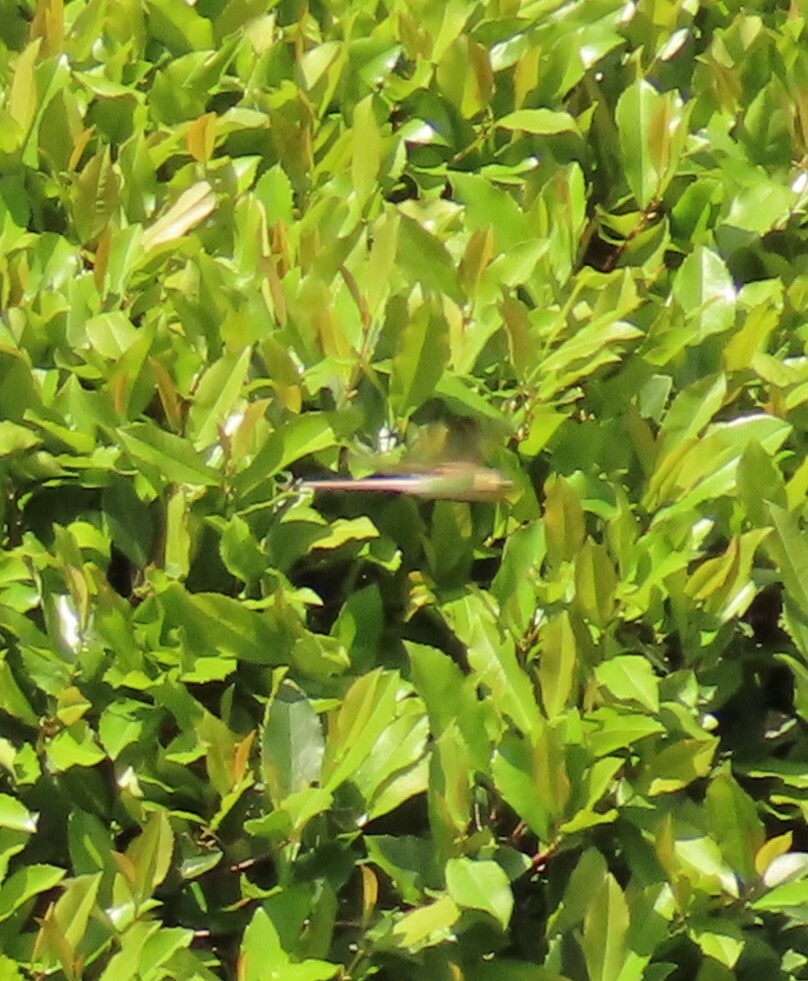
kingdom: Animalia
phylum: Arthropoda
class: Insecta
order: Odonata
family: Aeshnidae
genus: Anax
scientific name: Anax junius
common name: Common green darner
